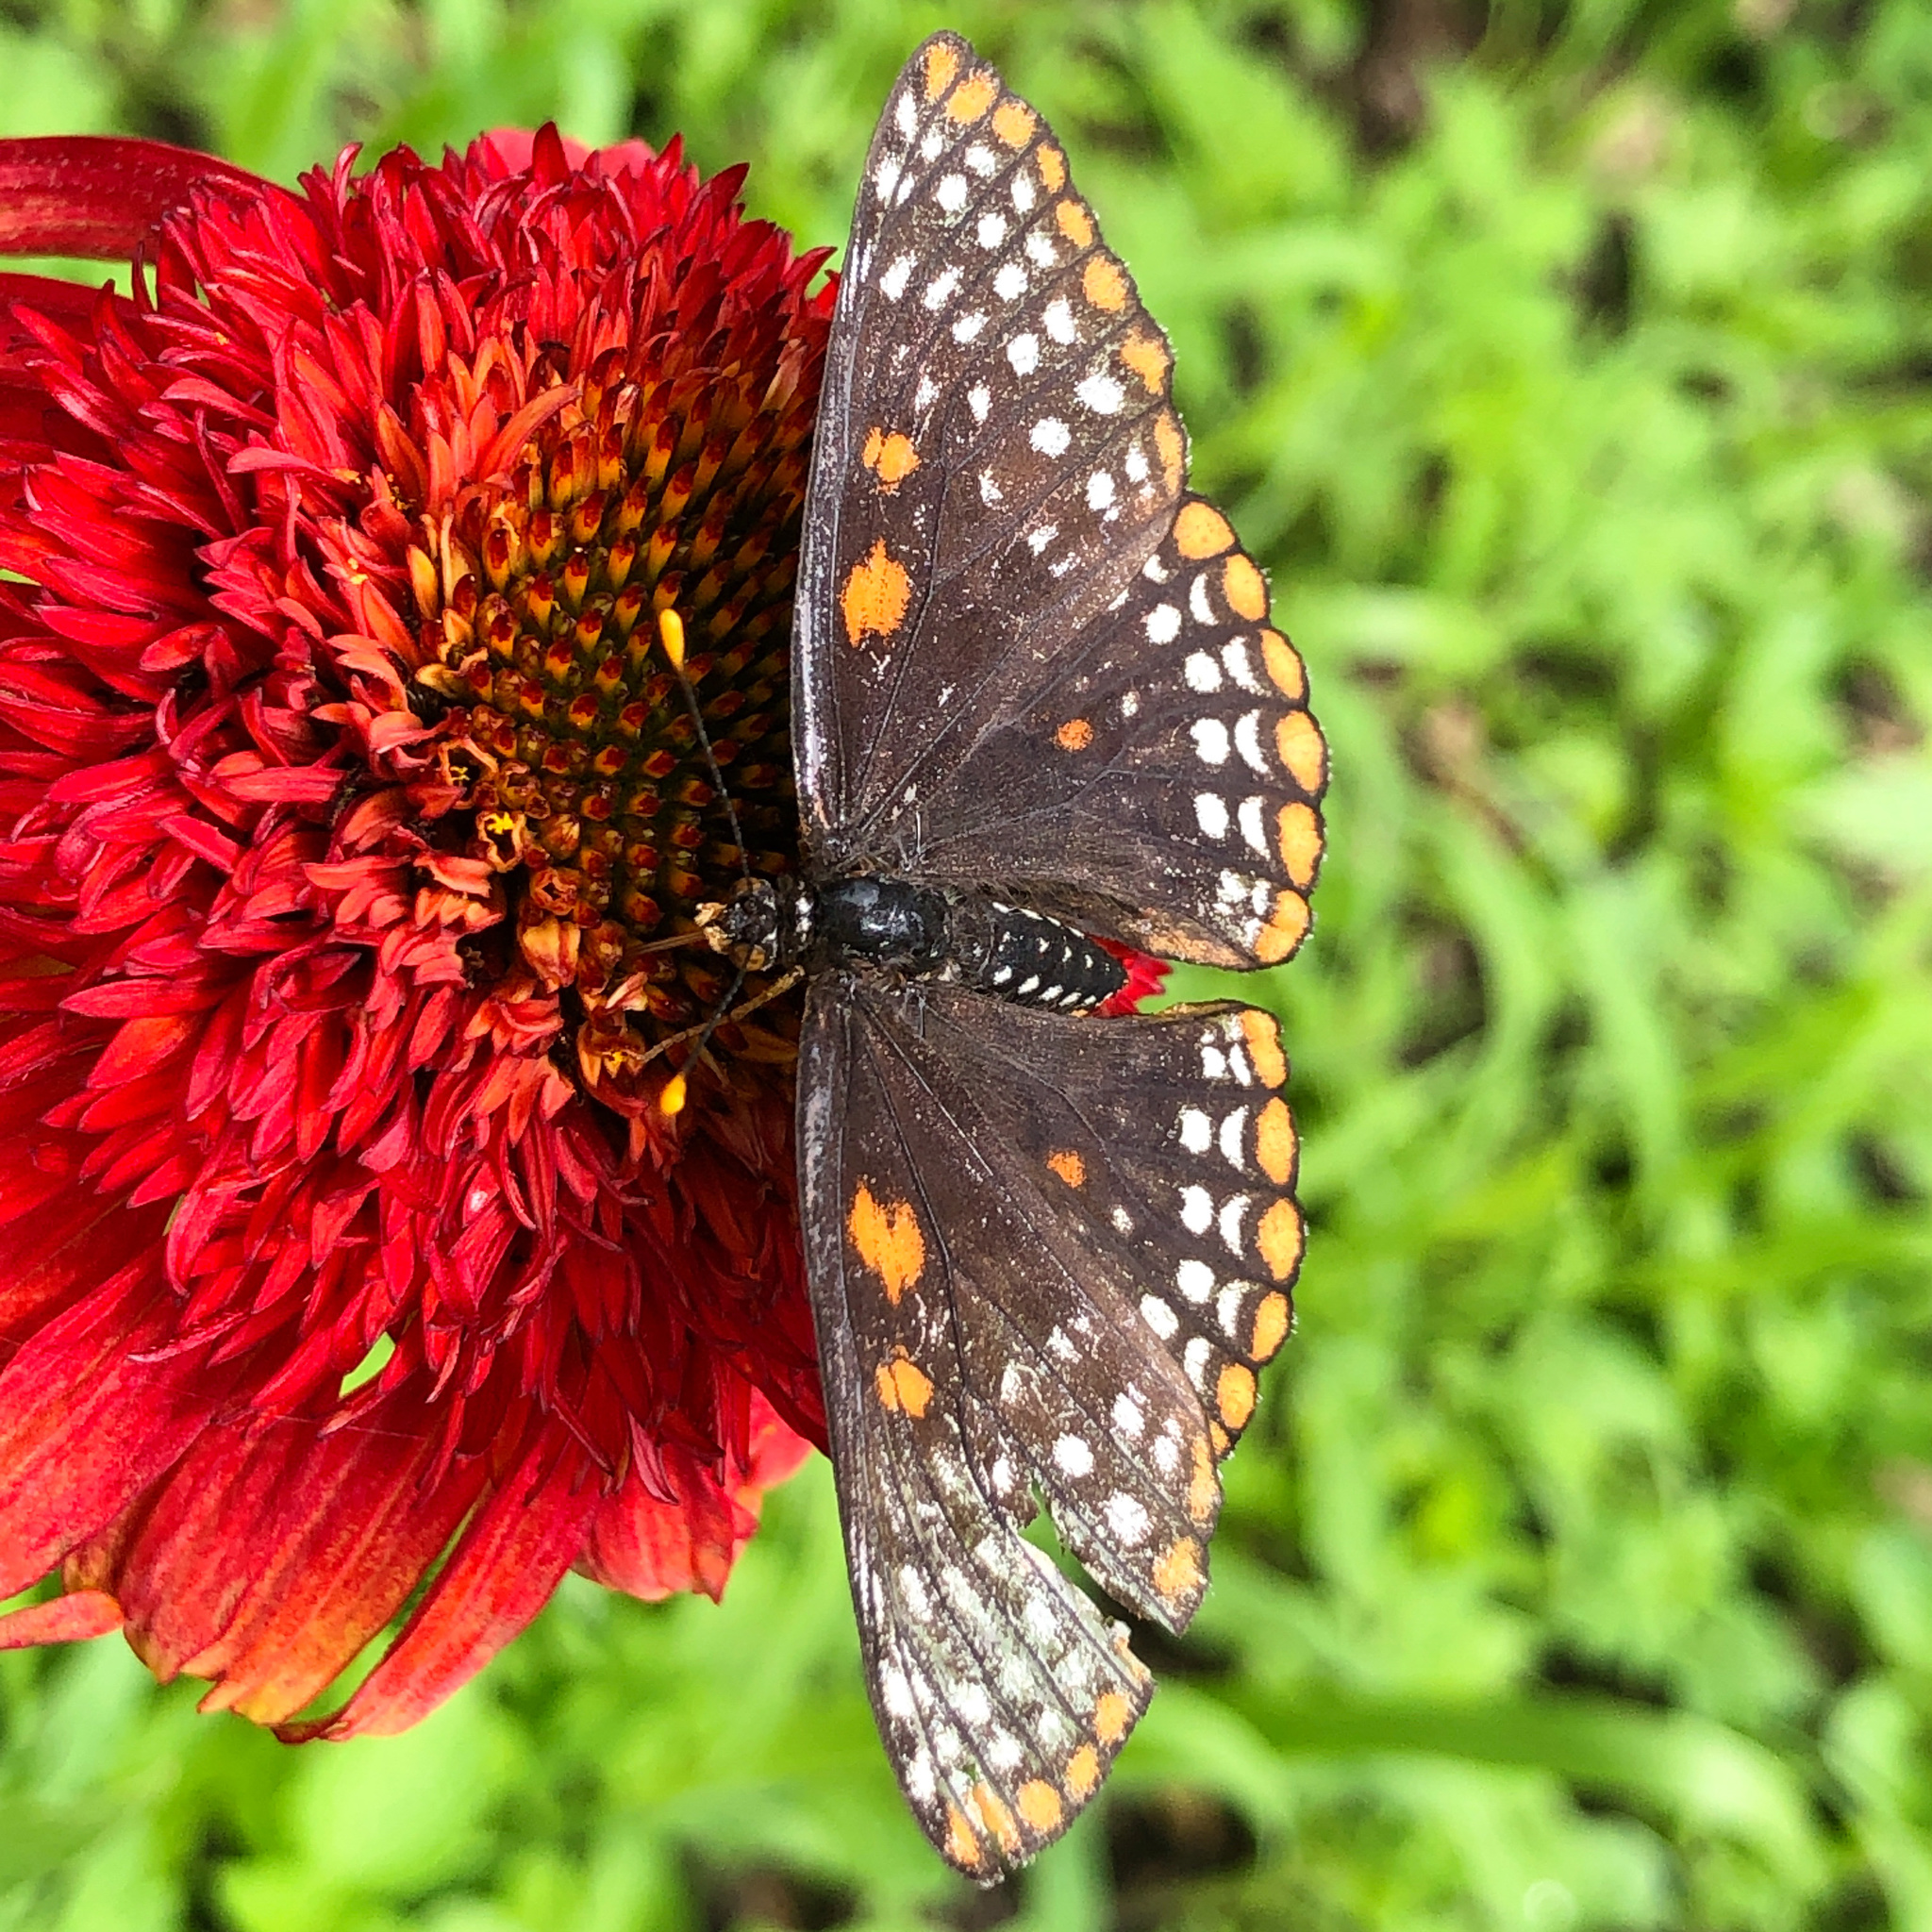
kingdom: Animalia
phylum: Arthropoda
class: Insecta
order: Lepidoptera
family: Nymphalidae
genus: Euphydryas
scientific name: Euphydryas phaeton
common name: Baltimore checkerspot
